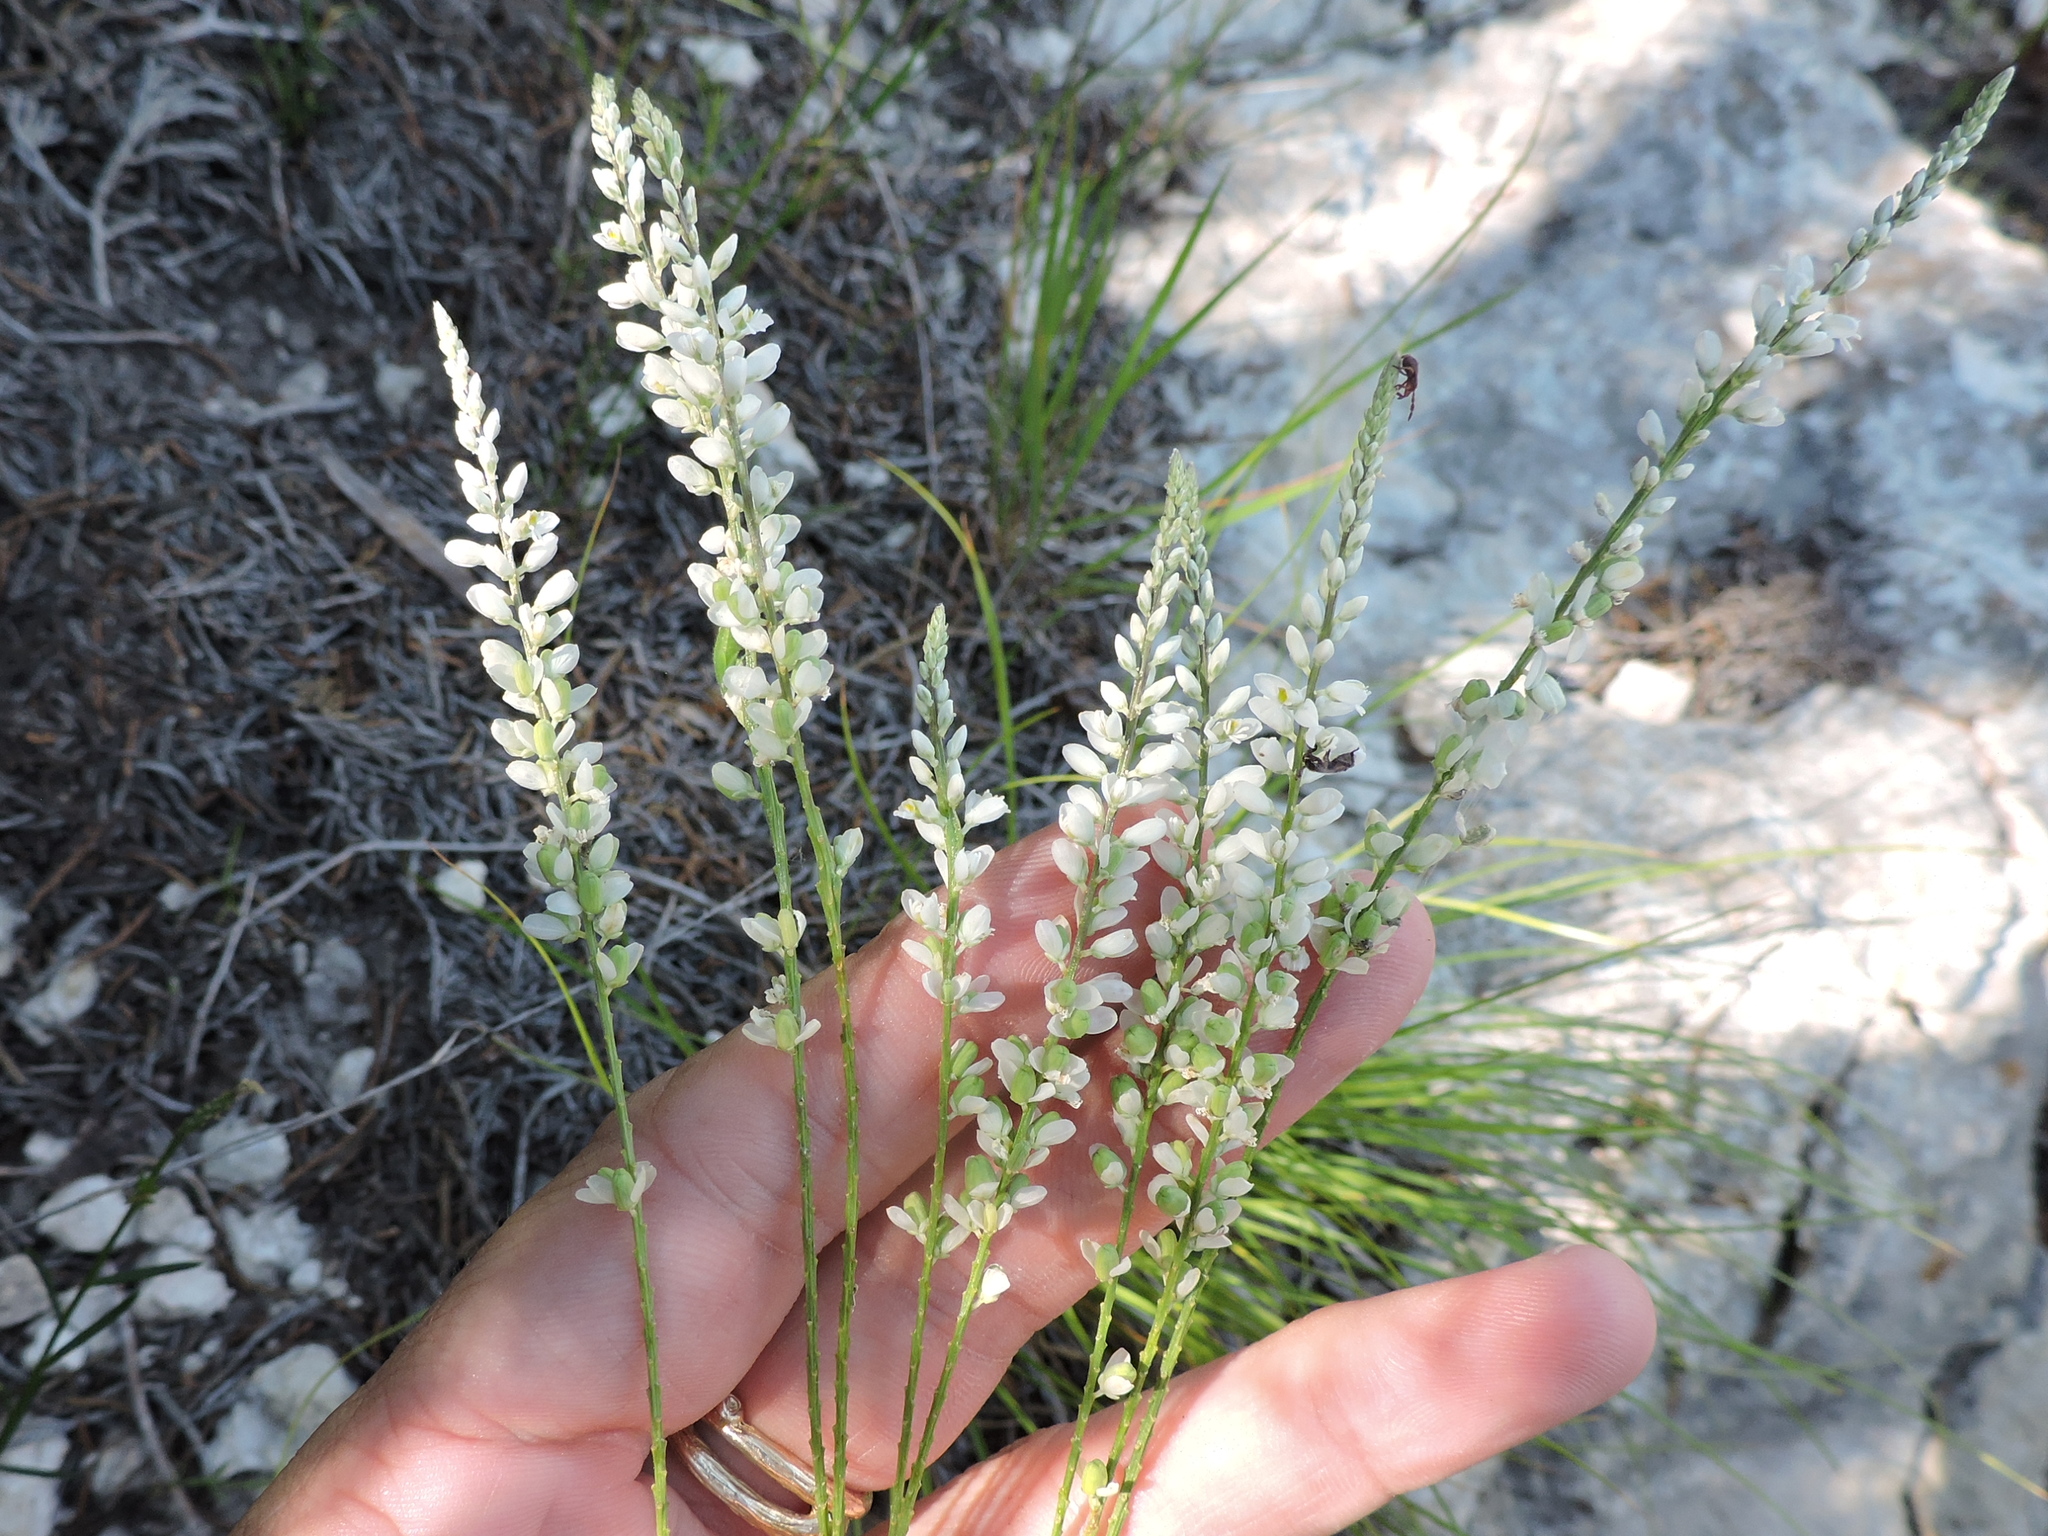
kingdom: Plantae
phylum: Tracheophyta
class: Magnoliopsida
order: Fabales
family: Polygalaceae
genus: Polygala
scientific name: Polygala alba
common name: White milkwort
